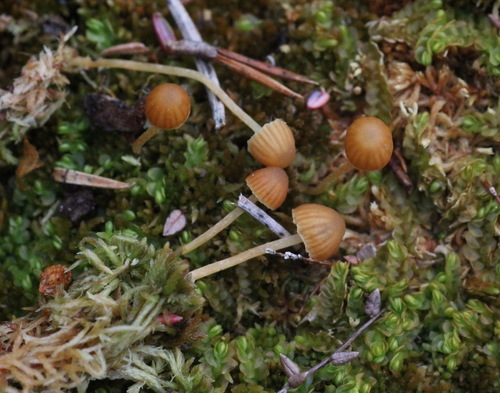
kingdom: Fungi
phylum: Basidiomycota
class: Agaricomycetes
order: Agaricales
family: Hymenogastraceae
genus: Galerina
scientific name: Galerina calyptrata
